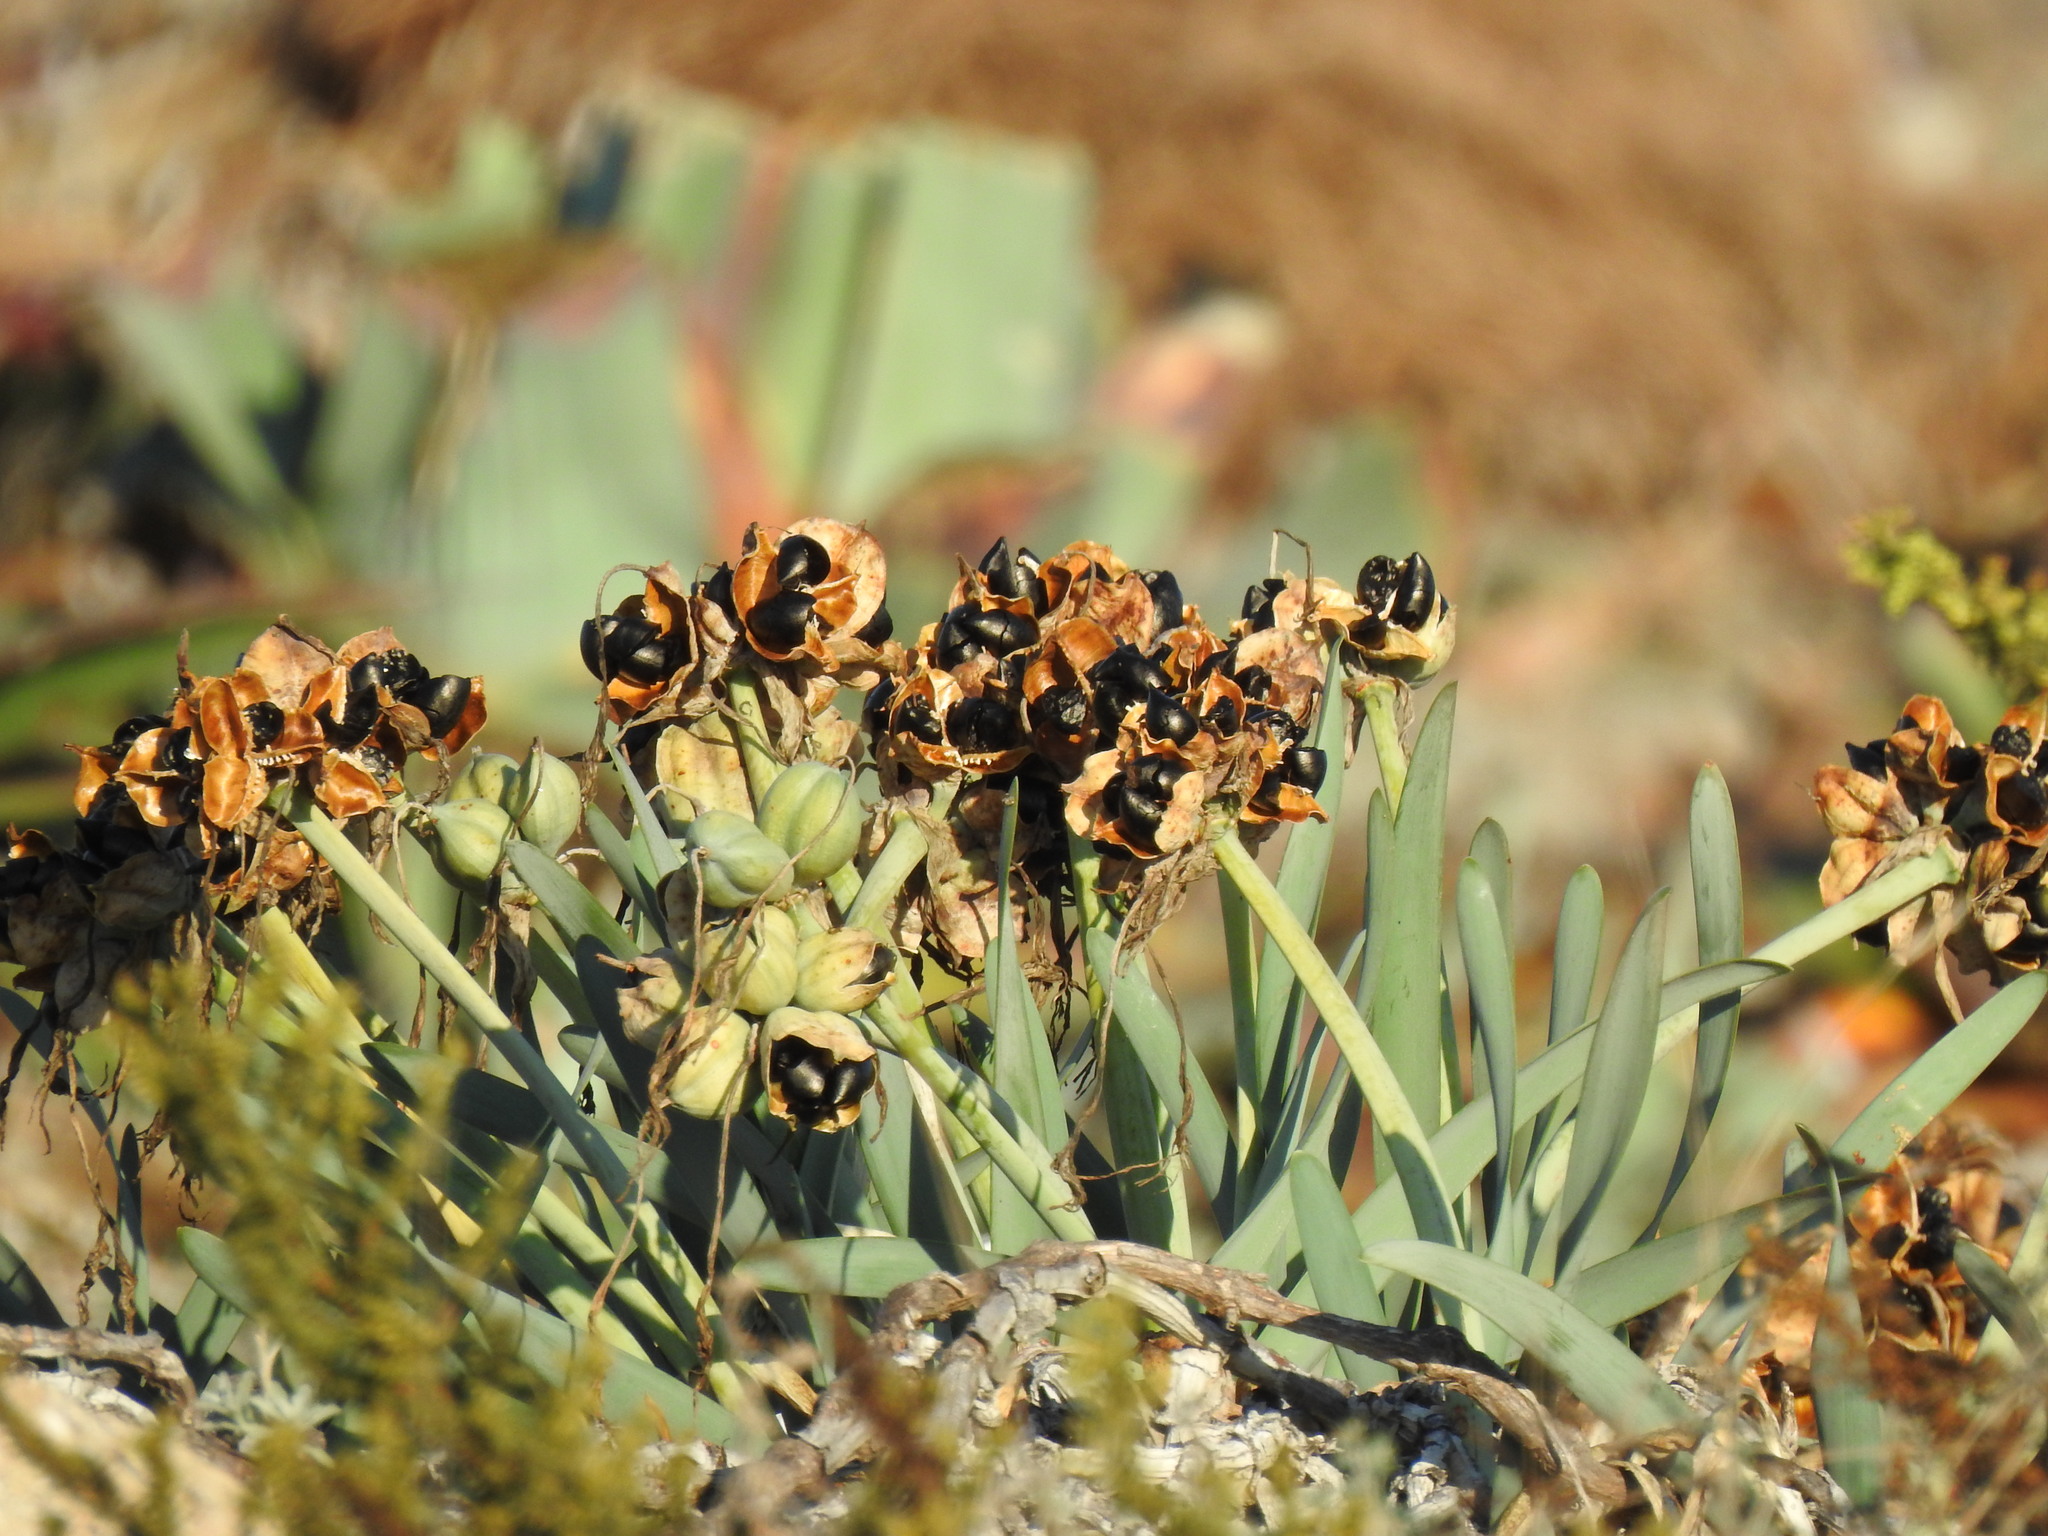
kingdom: Plantae
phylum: Tracheophyta
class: Liliopsida
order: Asparagales
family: Amaryllidaceae
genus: Pancratium
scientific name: Pancratium maritimum
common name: Sea-daffodil
